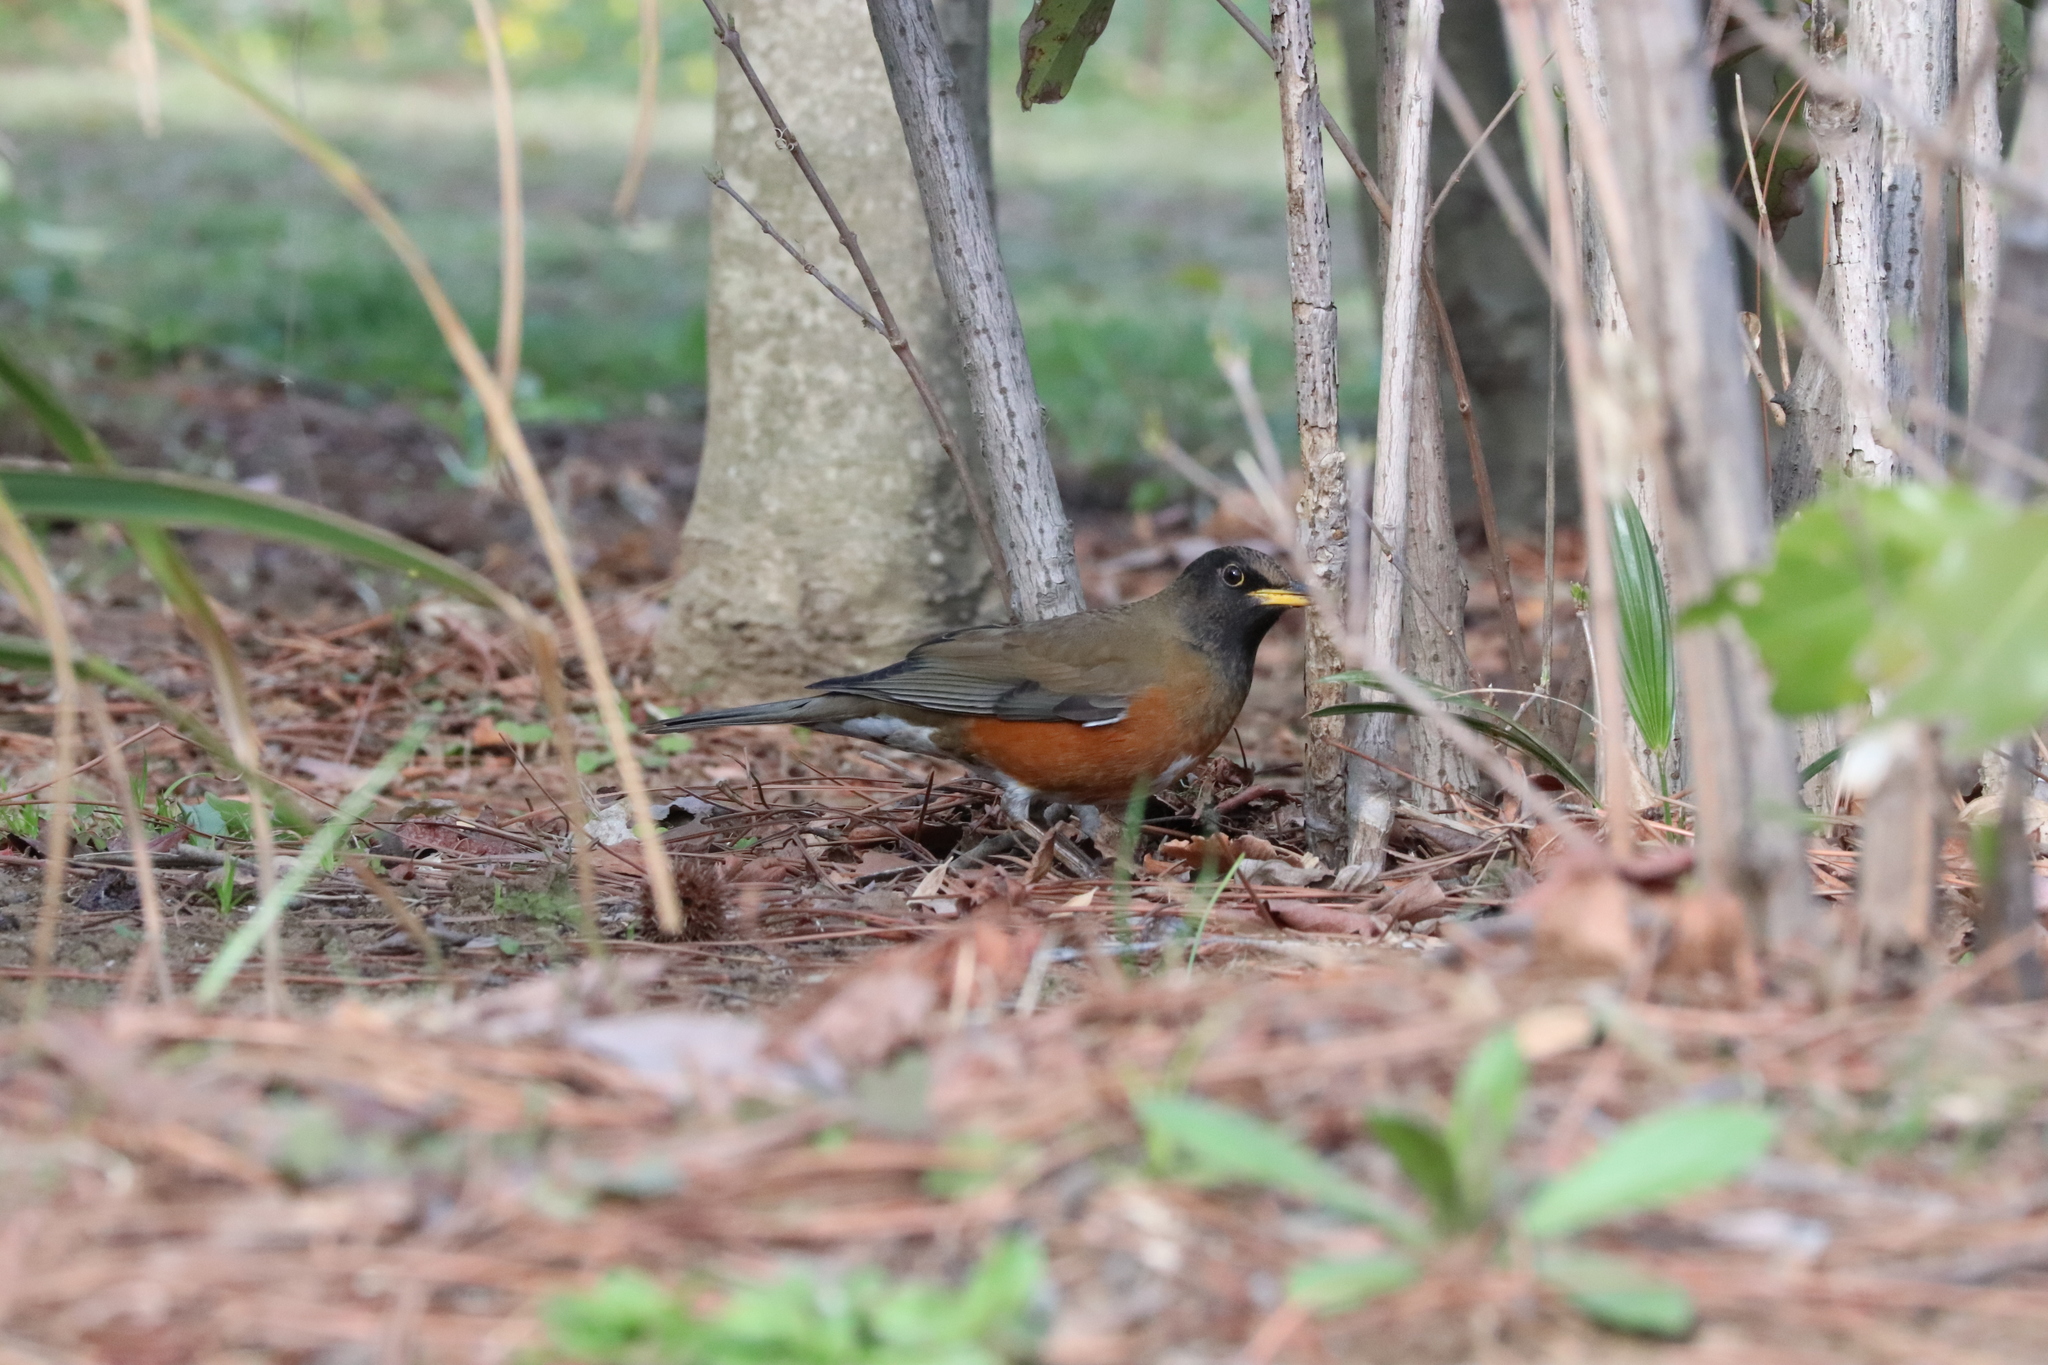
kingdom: Animalia
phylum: Chordata
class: Aves
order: Passeriformes
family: Turdidae
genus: Turdus
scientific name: Turdus chrysolaus
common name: Brown-headed thrush
